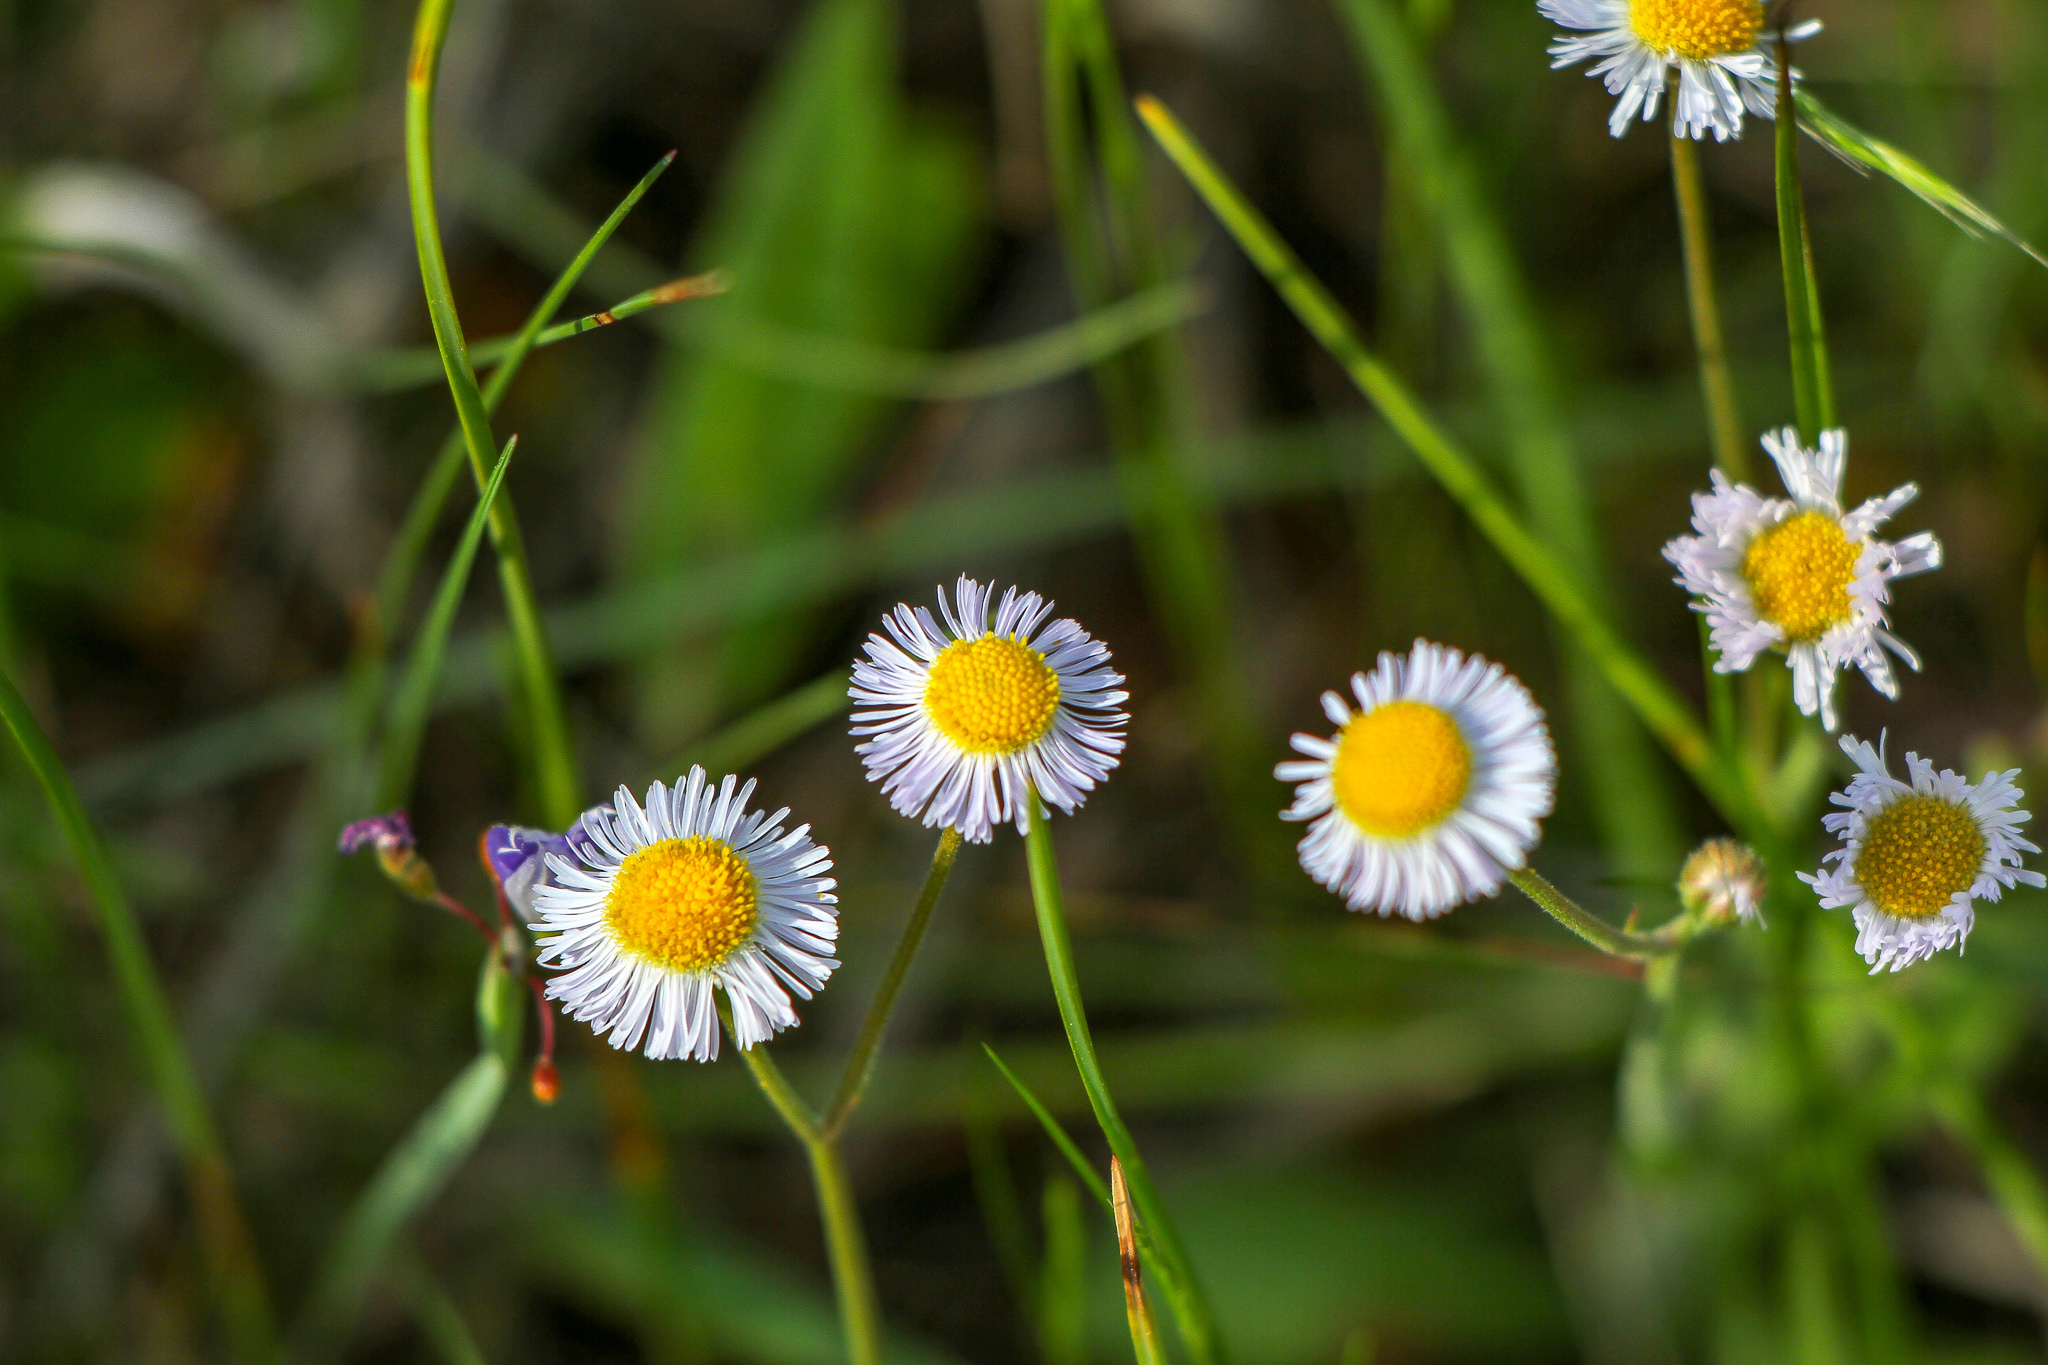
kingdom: Plantae
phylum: Tracheophyta
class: Magnoliopsida
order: Asterales
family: Asteraceae
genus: Erigeron
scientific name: Erigeron quercifolius
